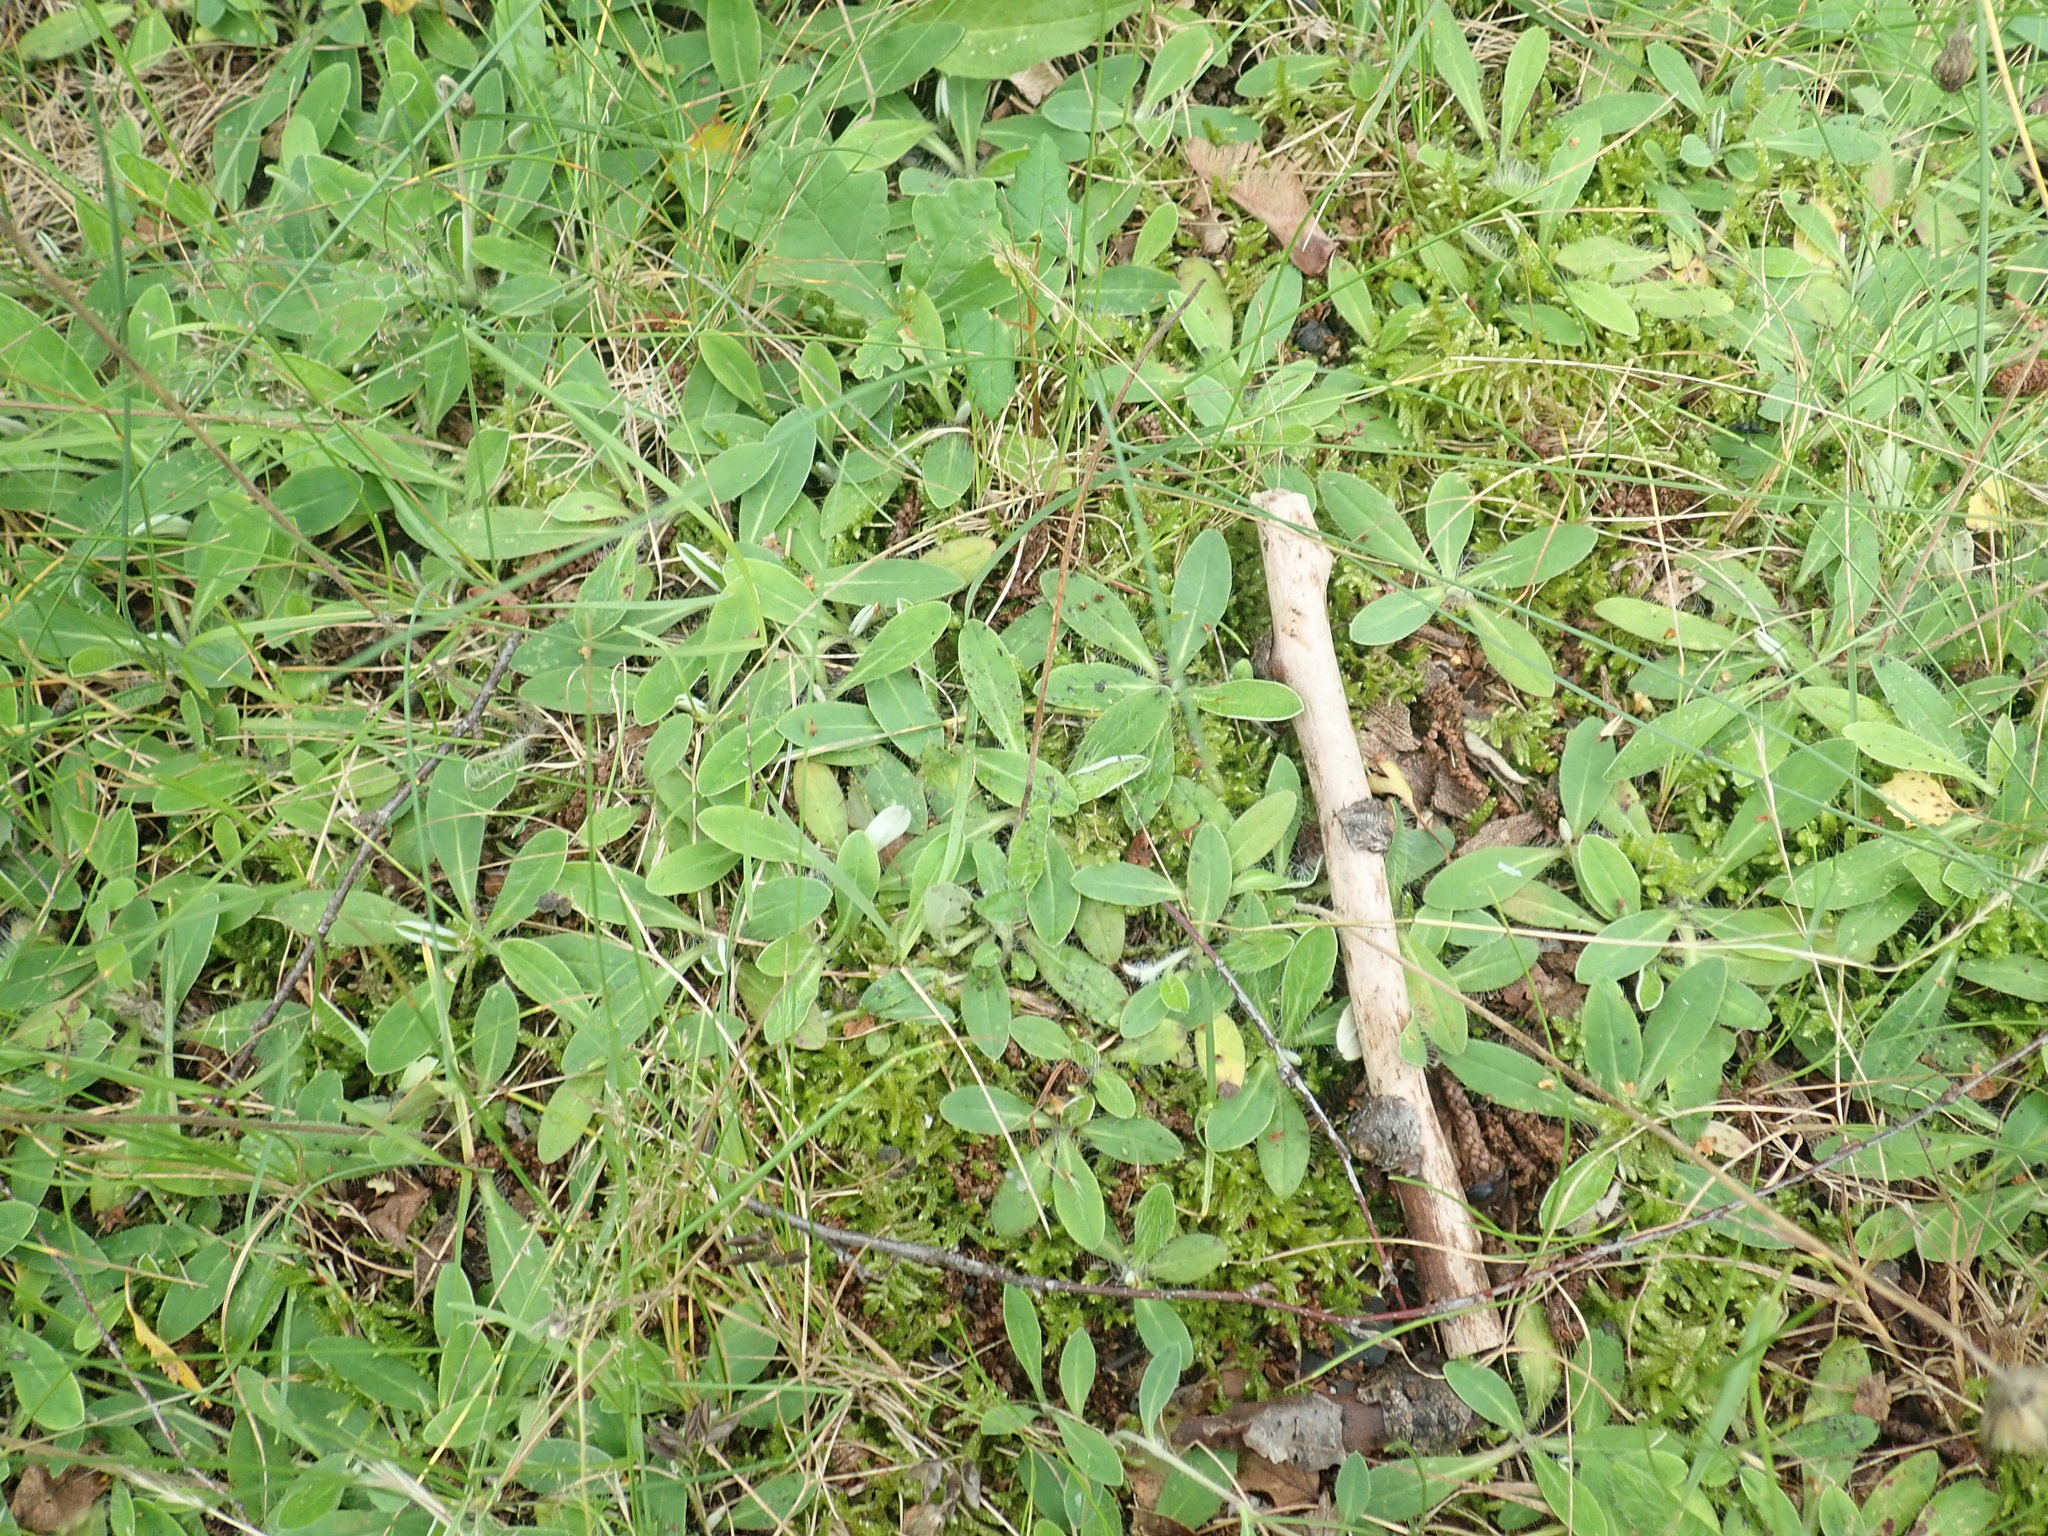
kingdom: Plantae
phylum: Tracheophyta
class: Magnoliopsida
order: Asterales
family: Asteraceae
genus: Pilosella
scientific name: Pilosella officinarum
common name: Mouse-ear hawkweed
